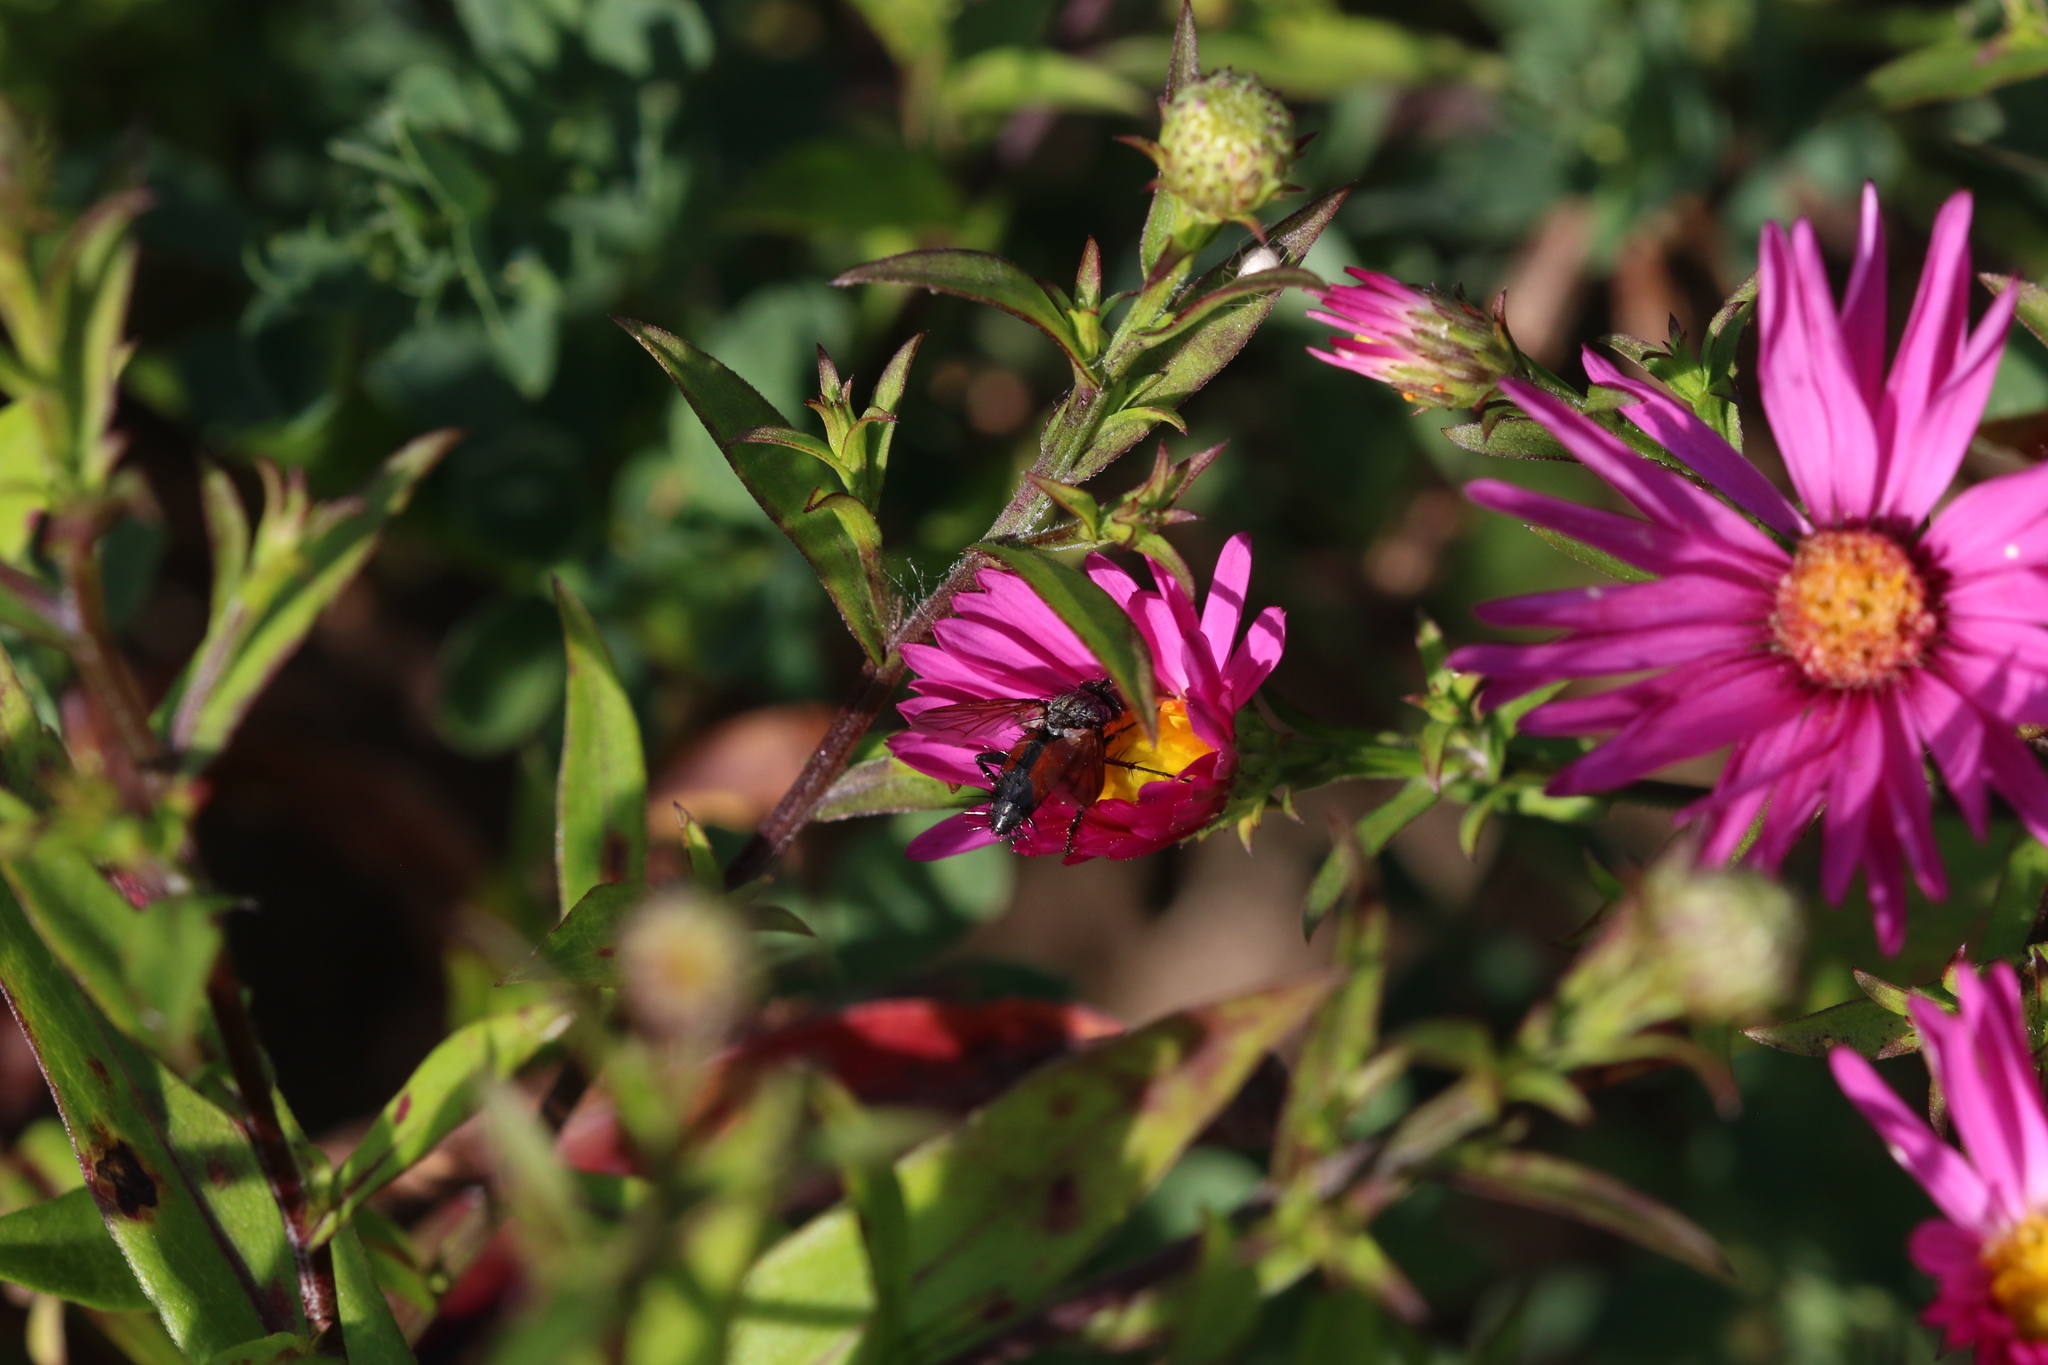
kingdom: Animalia
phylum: Arthropoda
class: Insecta
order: Diptera
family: Tachinidae
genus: Eriothrix
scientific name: Eriothrix rufomaculatus
